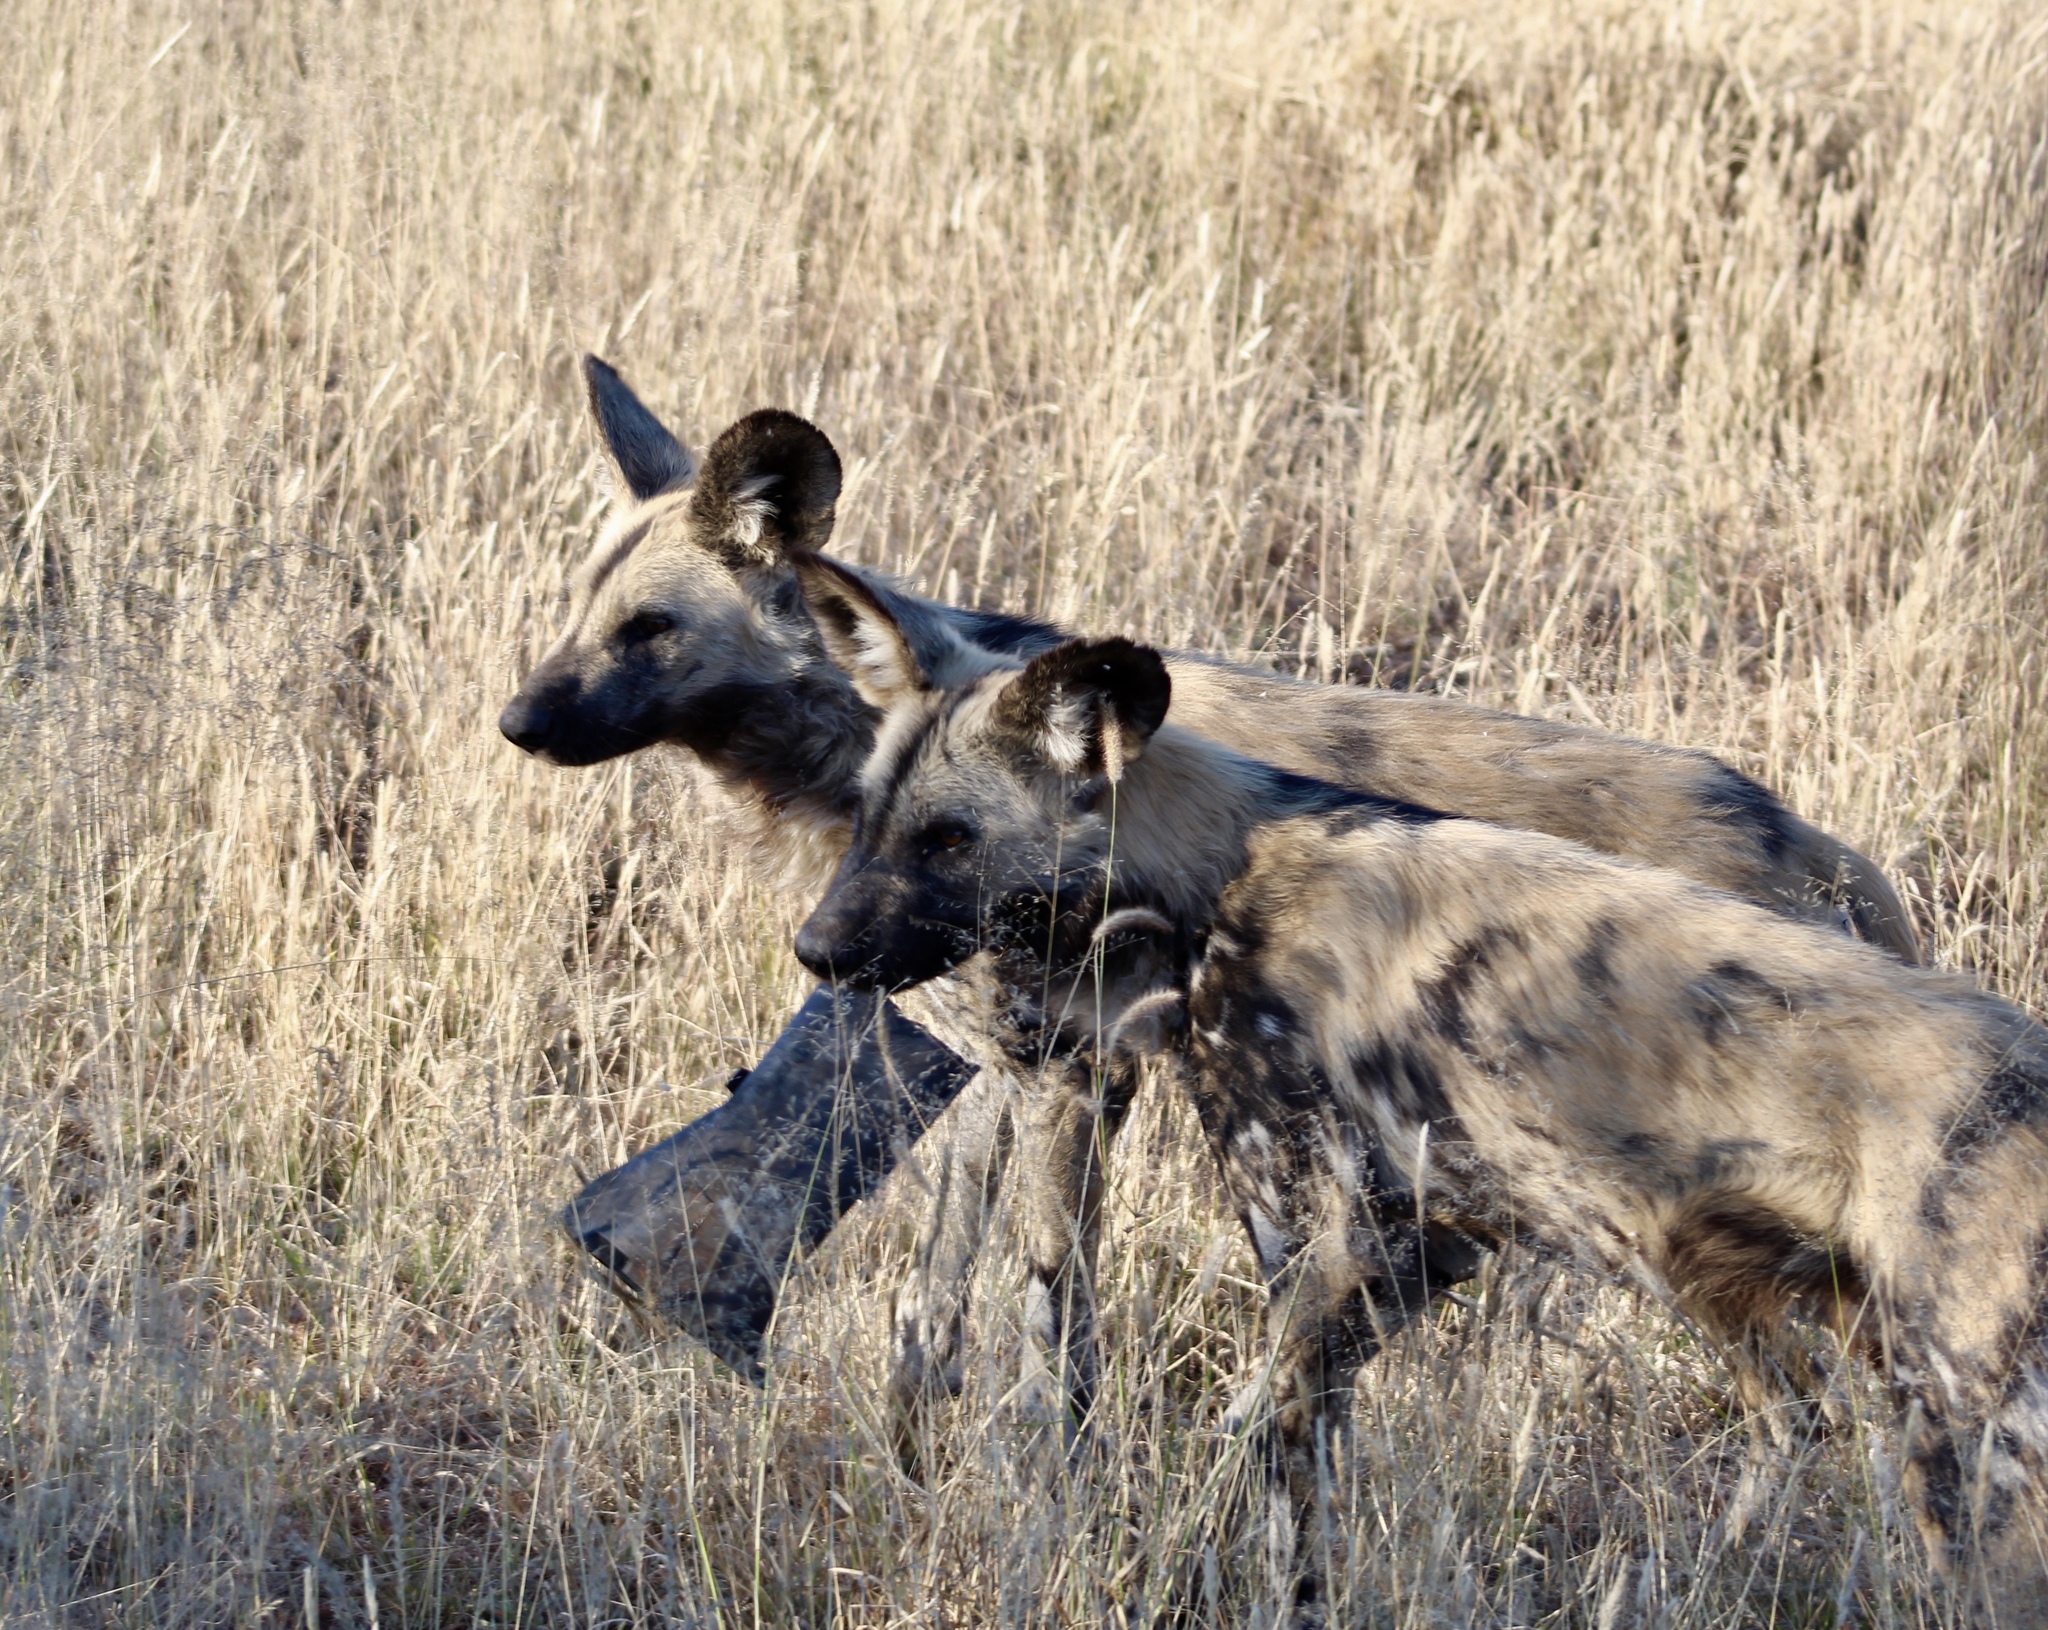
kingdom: Animalia
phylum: Chordata
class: Mammalia
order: Carnivora
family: Canidae
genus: Lycaon
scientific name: Lycaon pictus
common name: African wild dog
